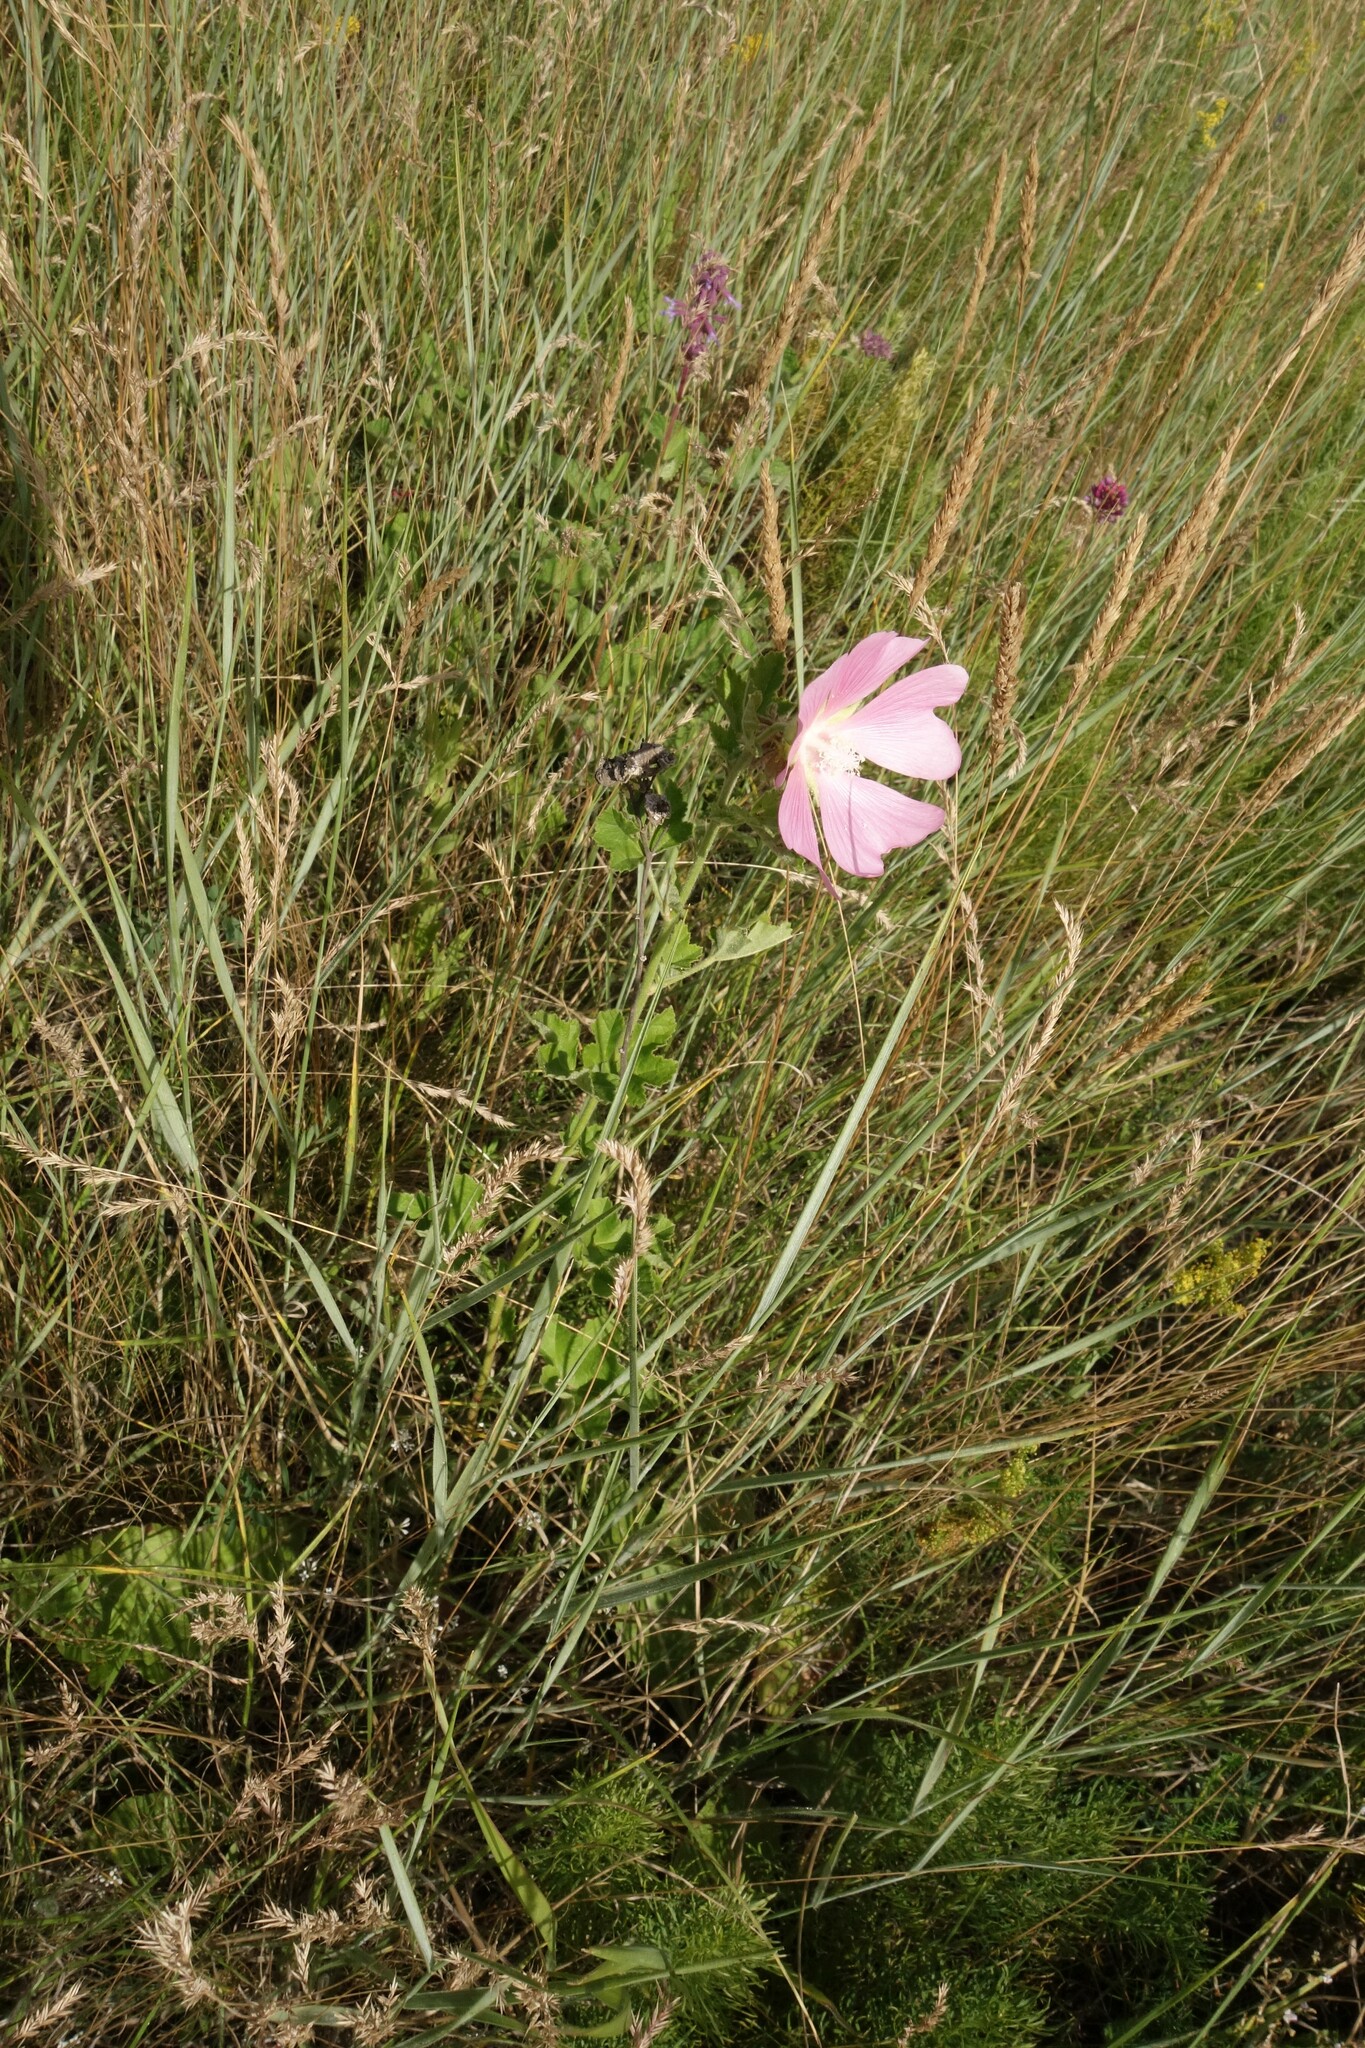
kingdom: Plantae
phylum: Tracheophyta
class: Magnoliopsida
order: Malvales
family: Malvaceae
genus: Malva
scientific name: Malva thuringiaca
